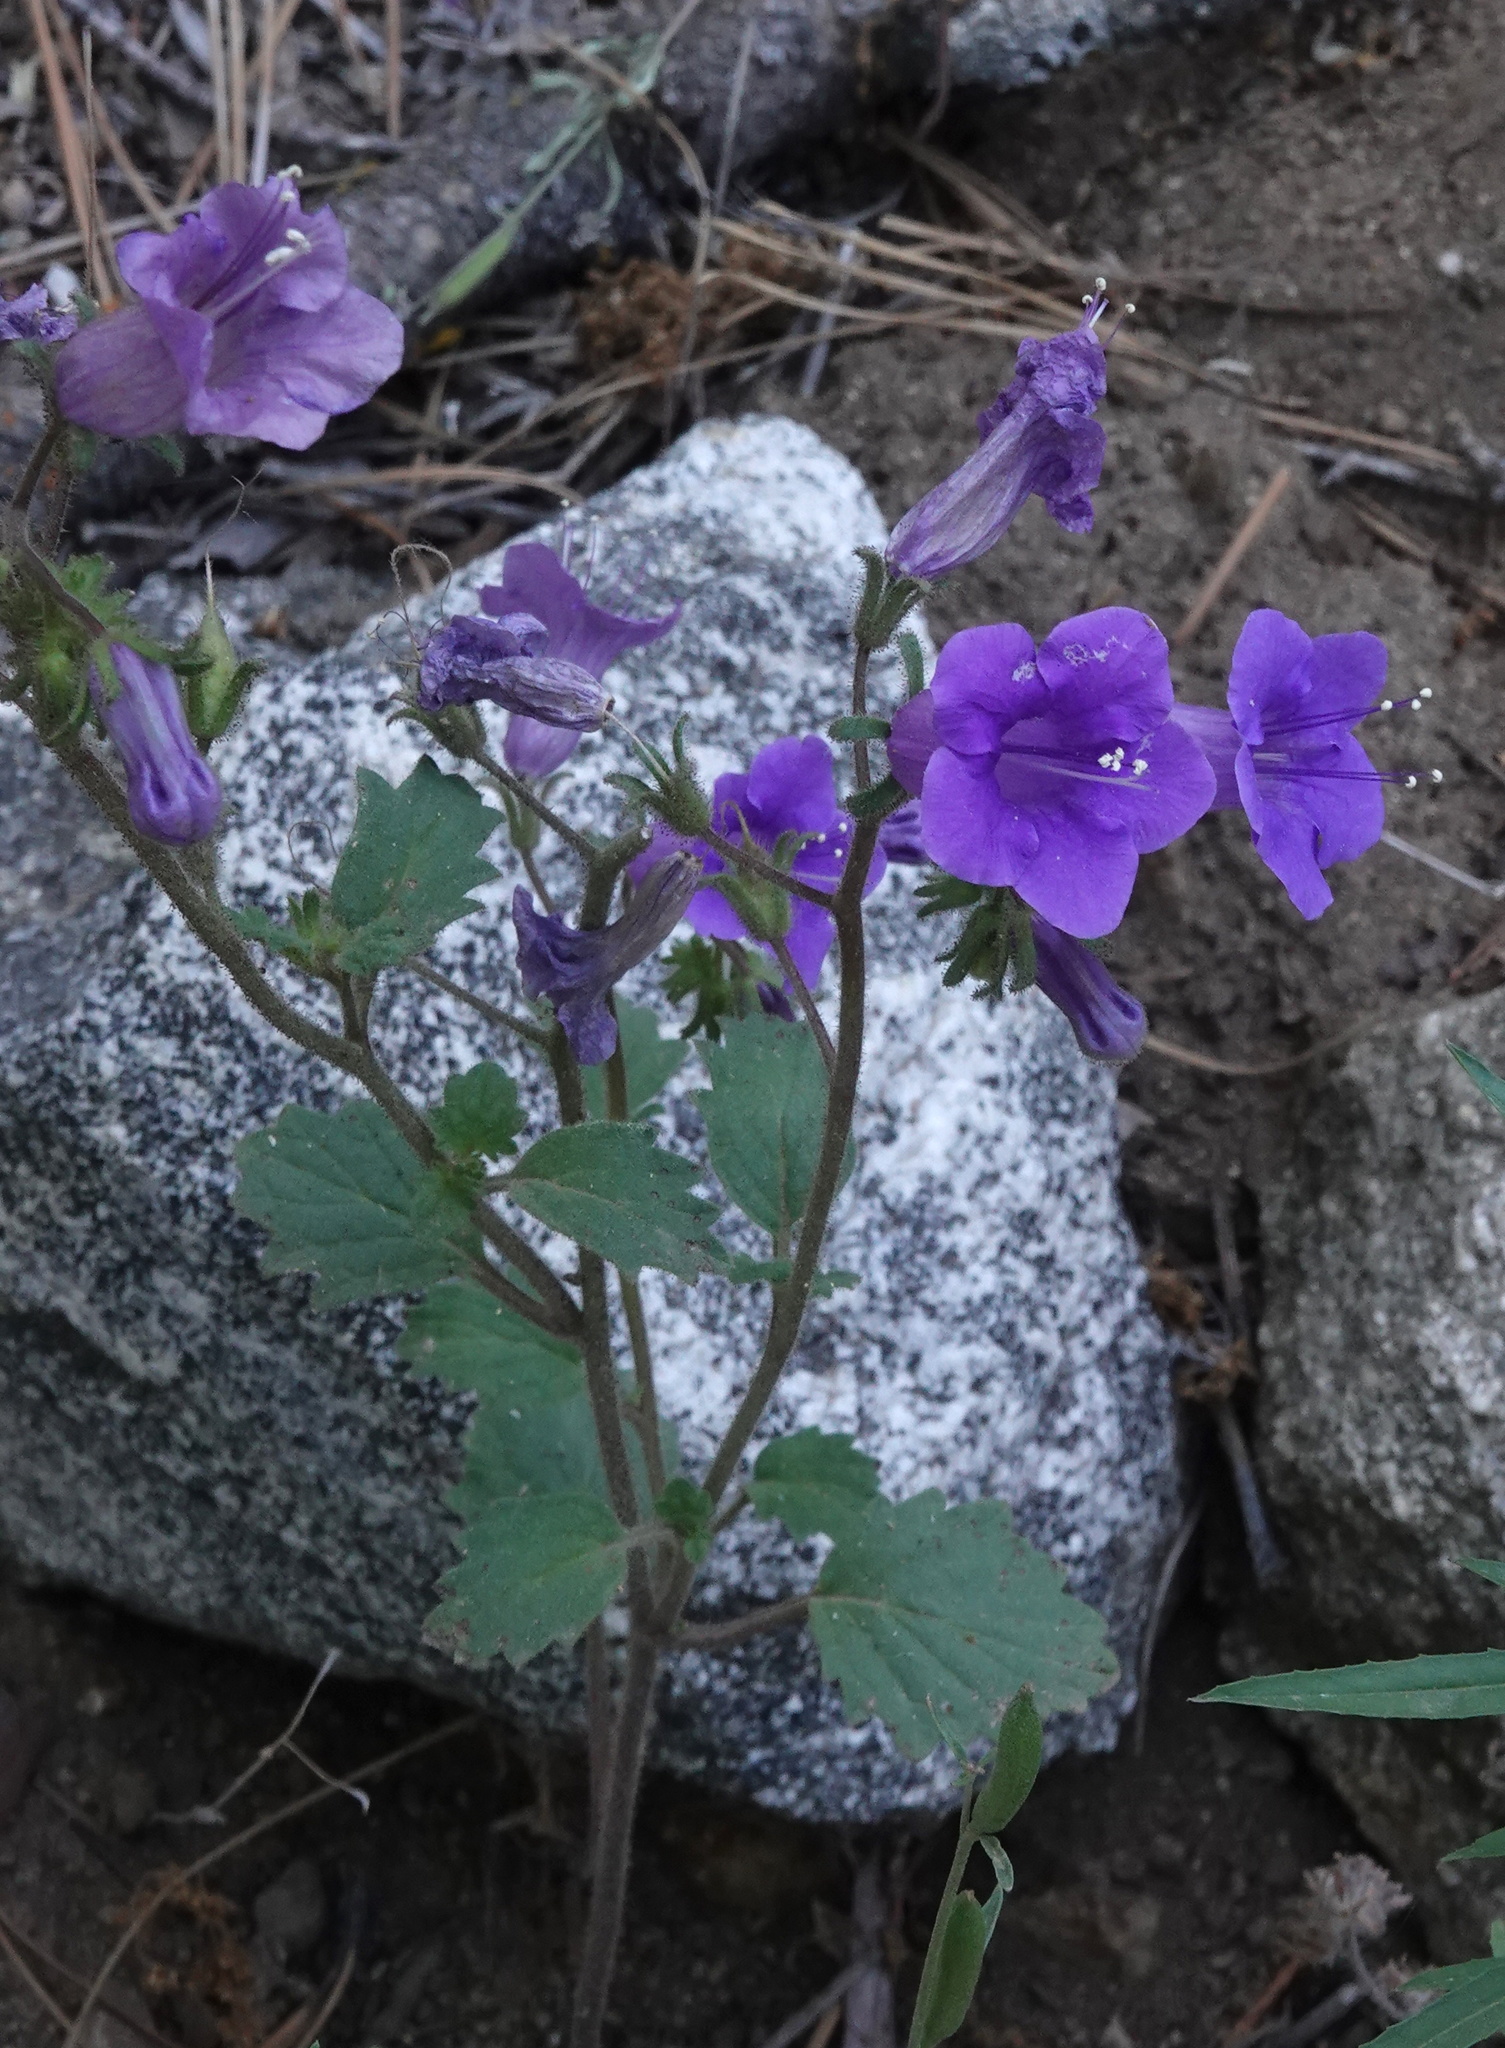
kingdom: Plantae
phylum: Tracheophyta
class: Magnoliopsida
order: Boraginales
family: Hydrophyllaceae
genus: Phacelia
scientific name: Phacelia minor
